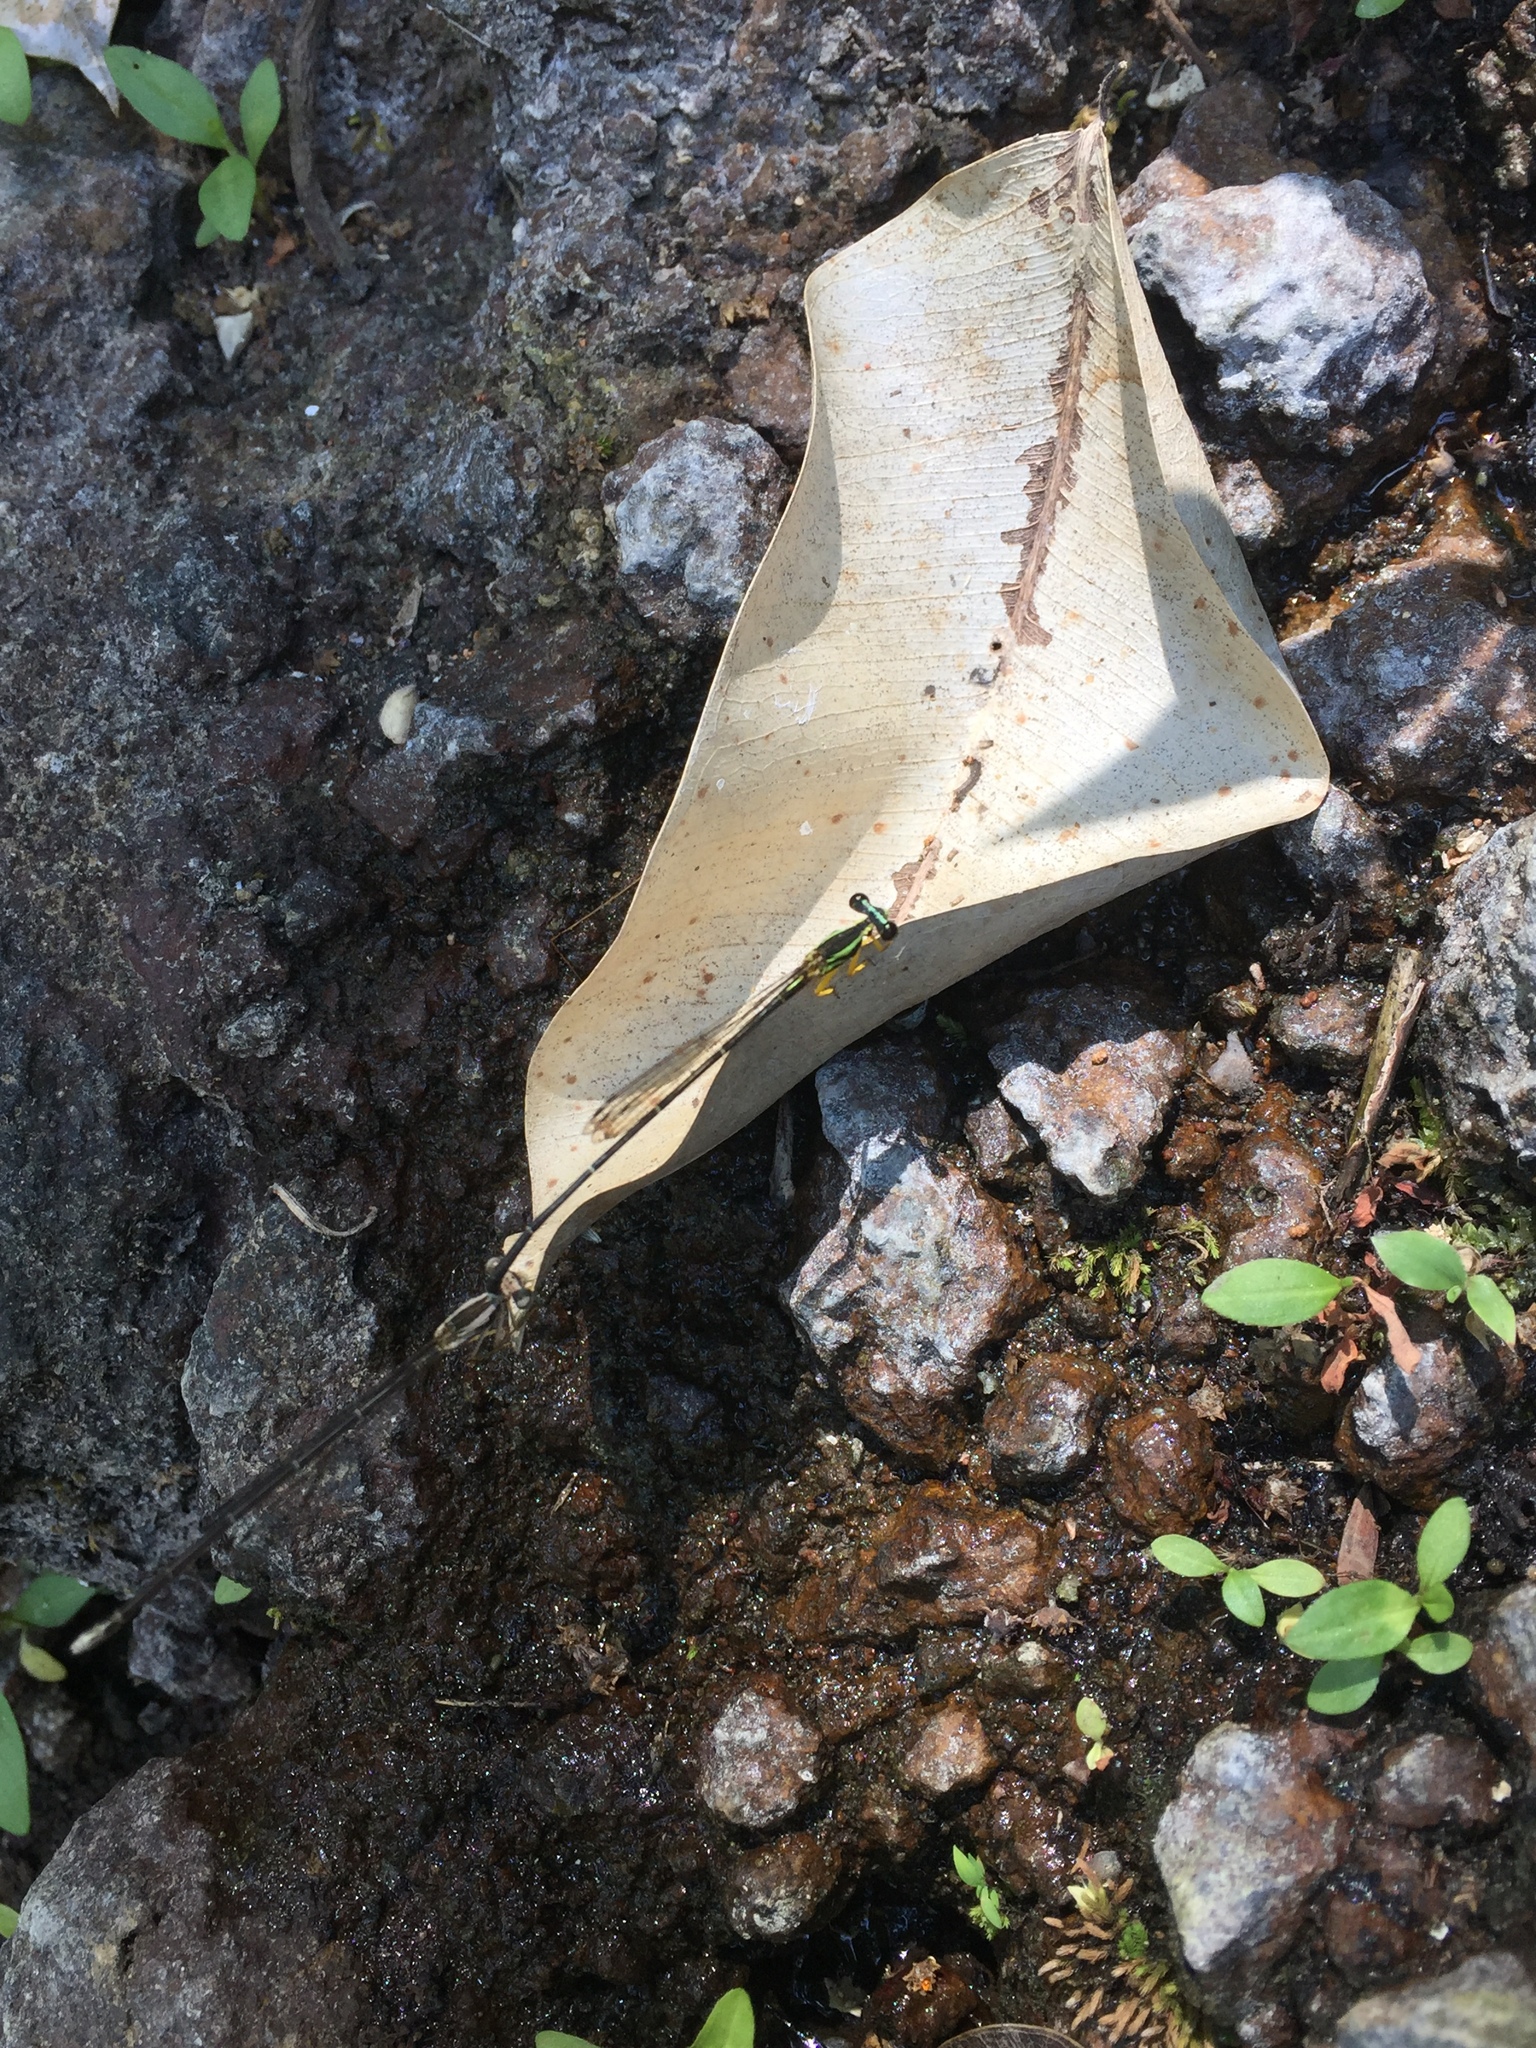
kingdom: Animalia
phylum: Arthropoda
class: Insecta
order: Odonata
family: Platycnemididae
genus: Copera
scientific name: Copera marginipes
